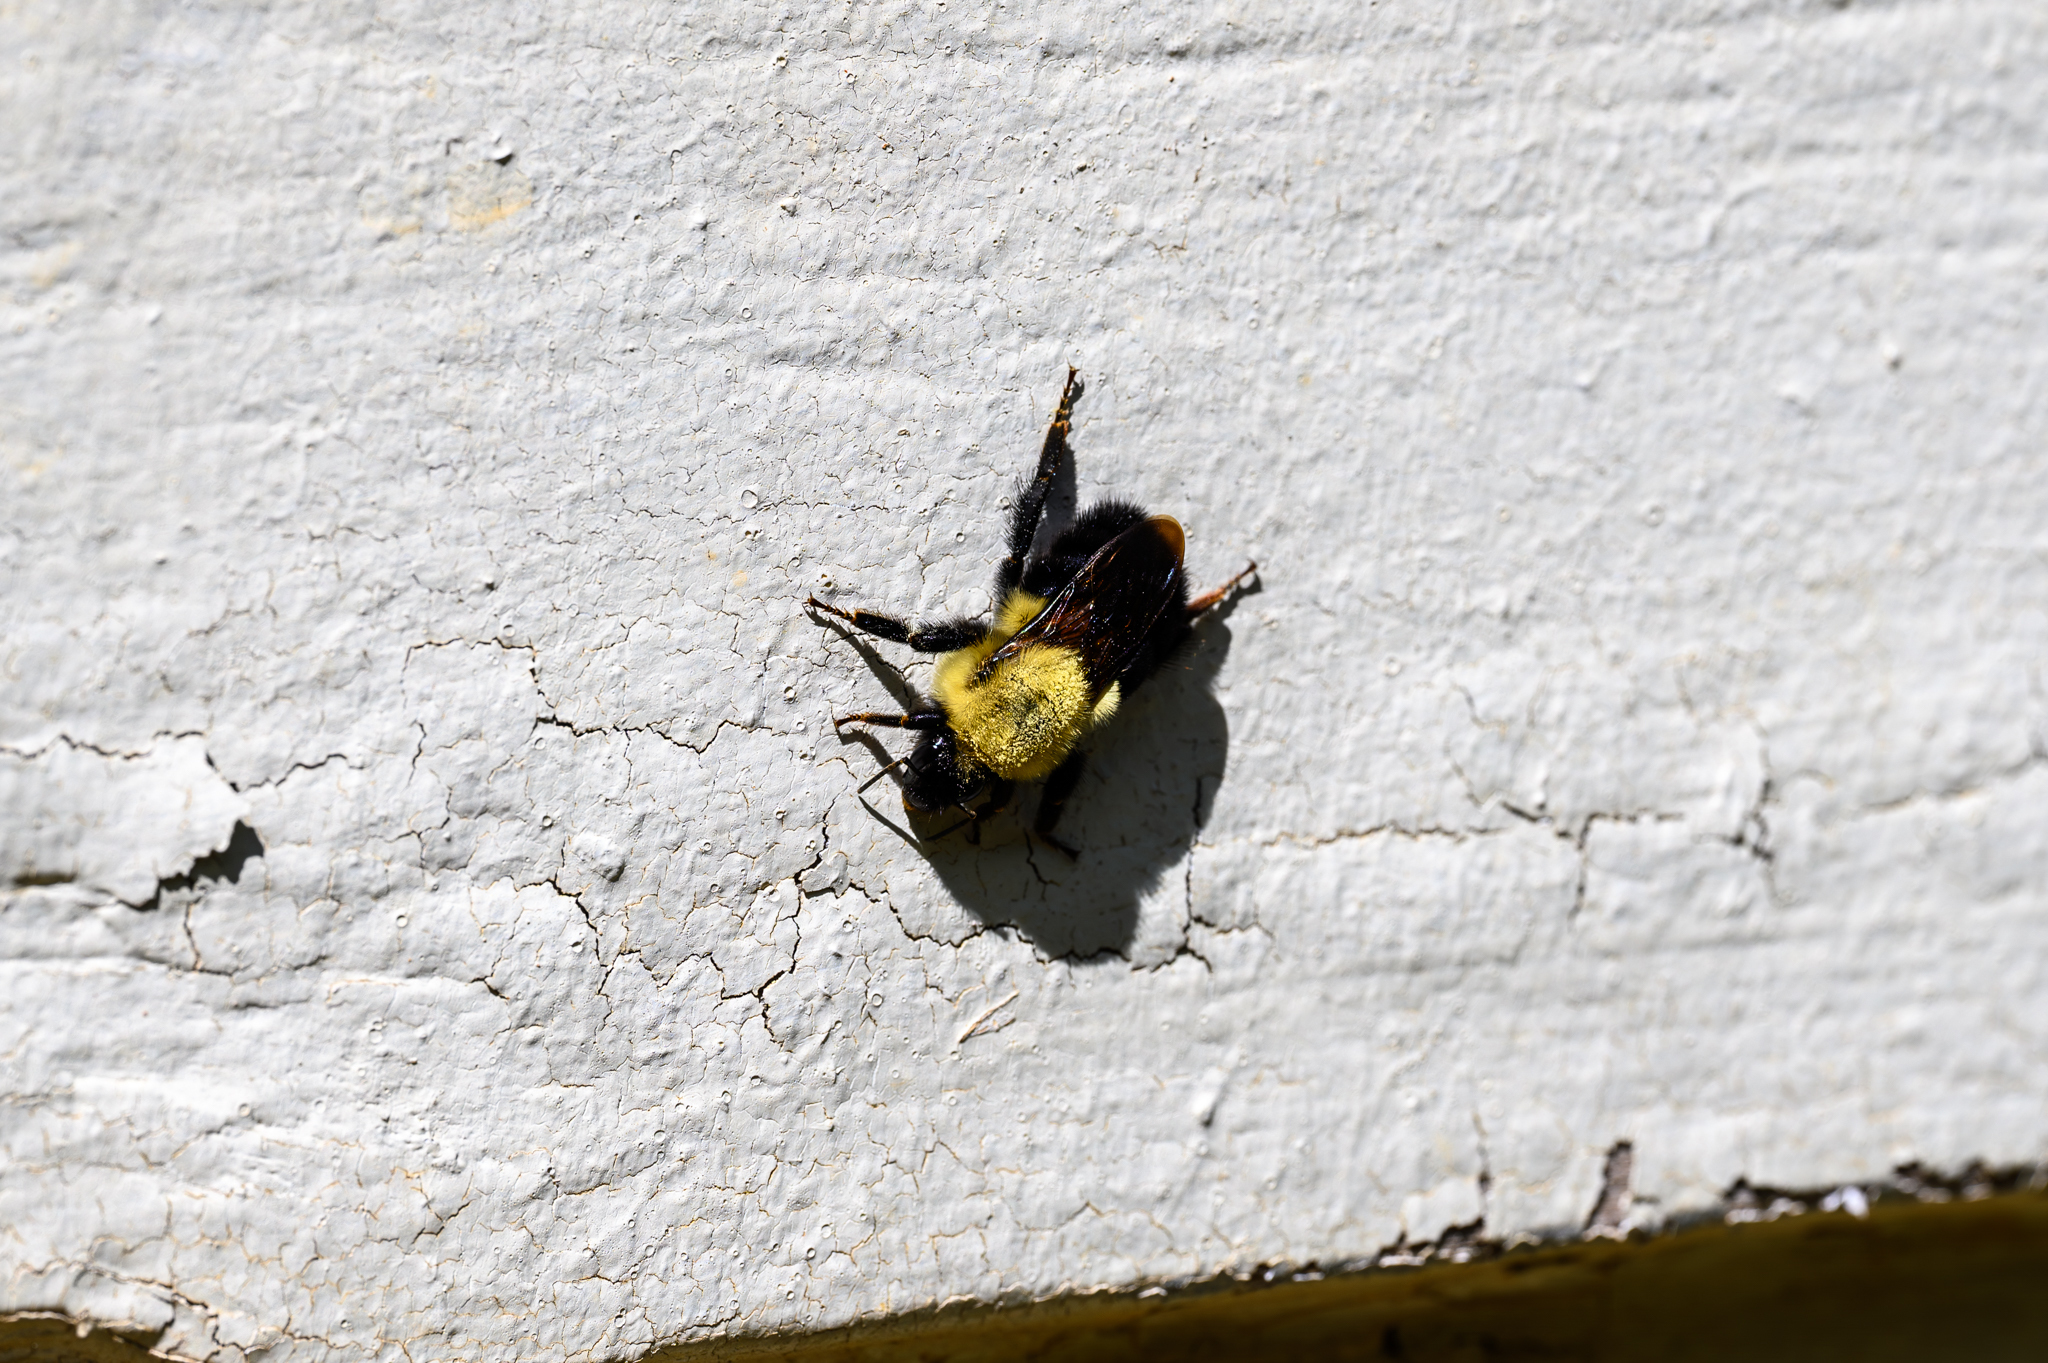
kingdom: Animalia
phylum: Arthropoda
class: Insecta
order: Hymenoptera
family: Apidae
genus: Bombus
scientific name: Bombus impatiens
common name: Common eastern bumble bee
